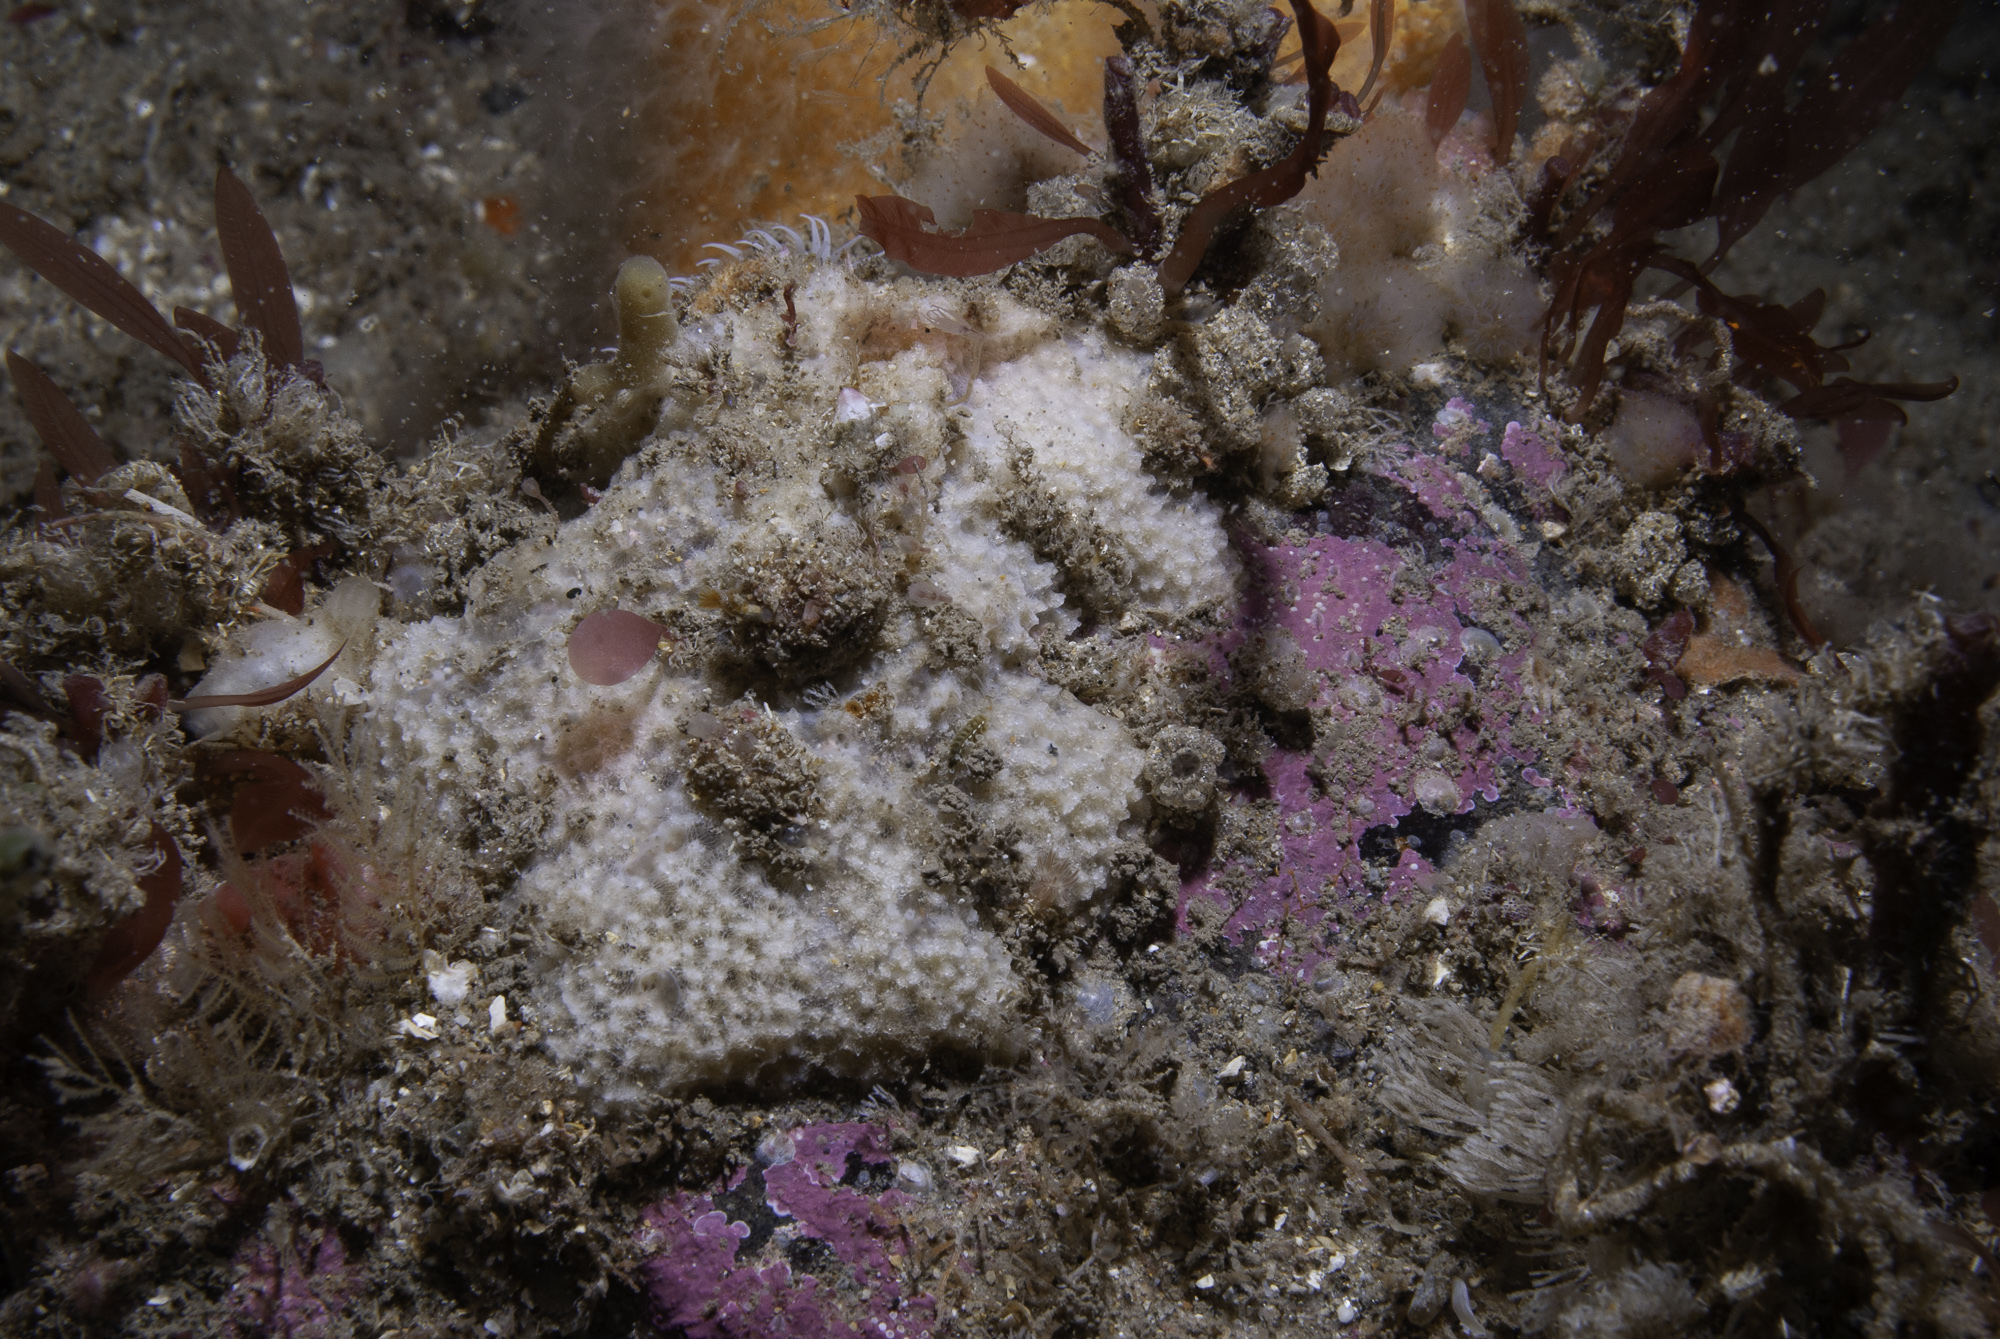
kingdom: Animalia
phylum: Porifera
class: Demospongiae
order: Dictyoceratida
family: Dysideidae
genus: Dysidea
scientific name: Dysidea fragilis
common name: Goosebump sponge
